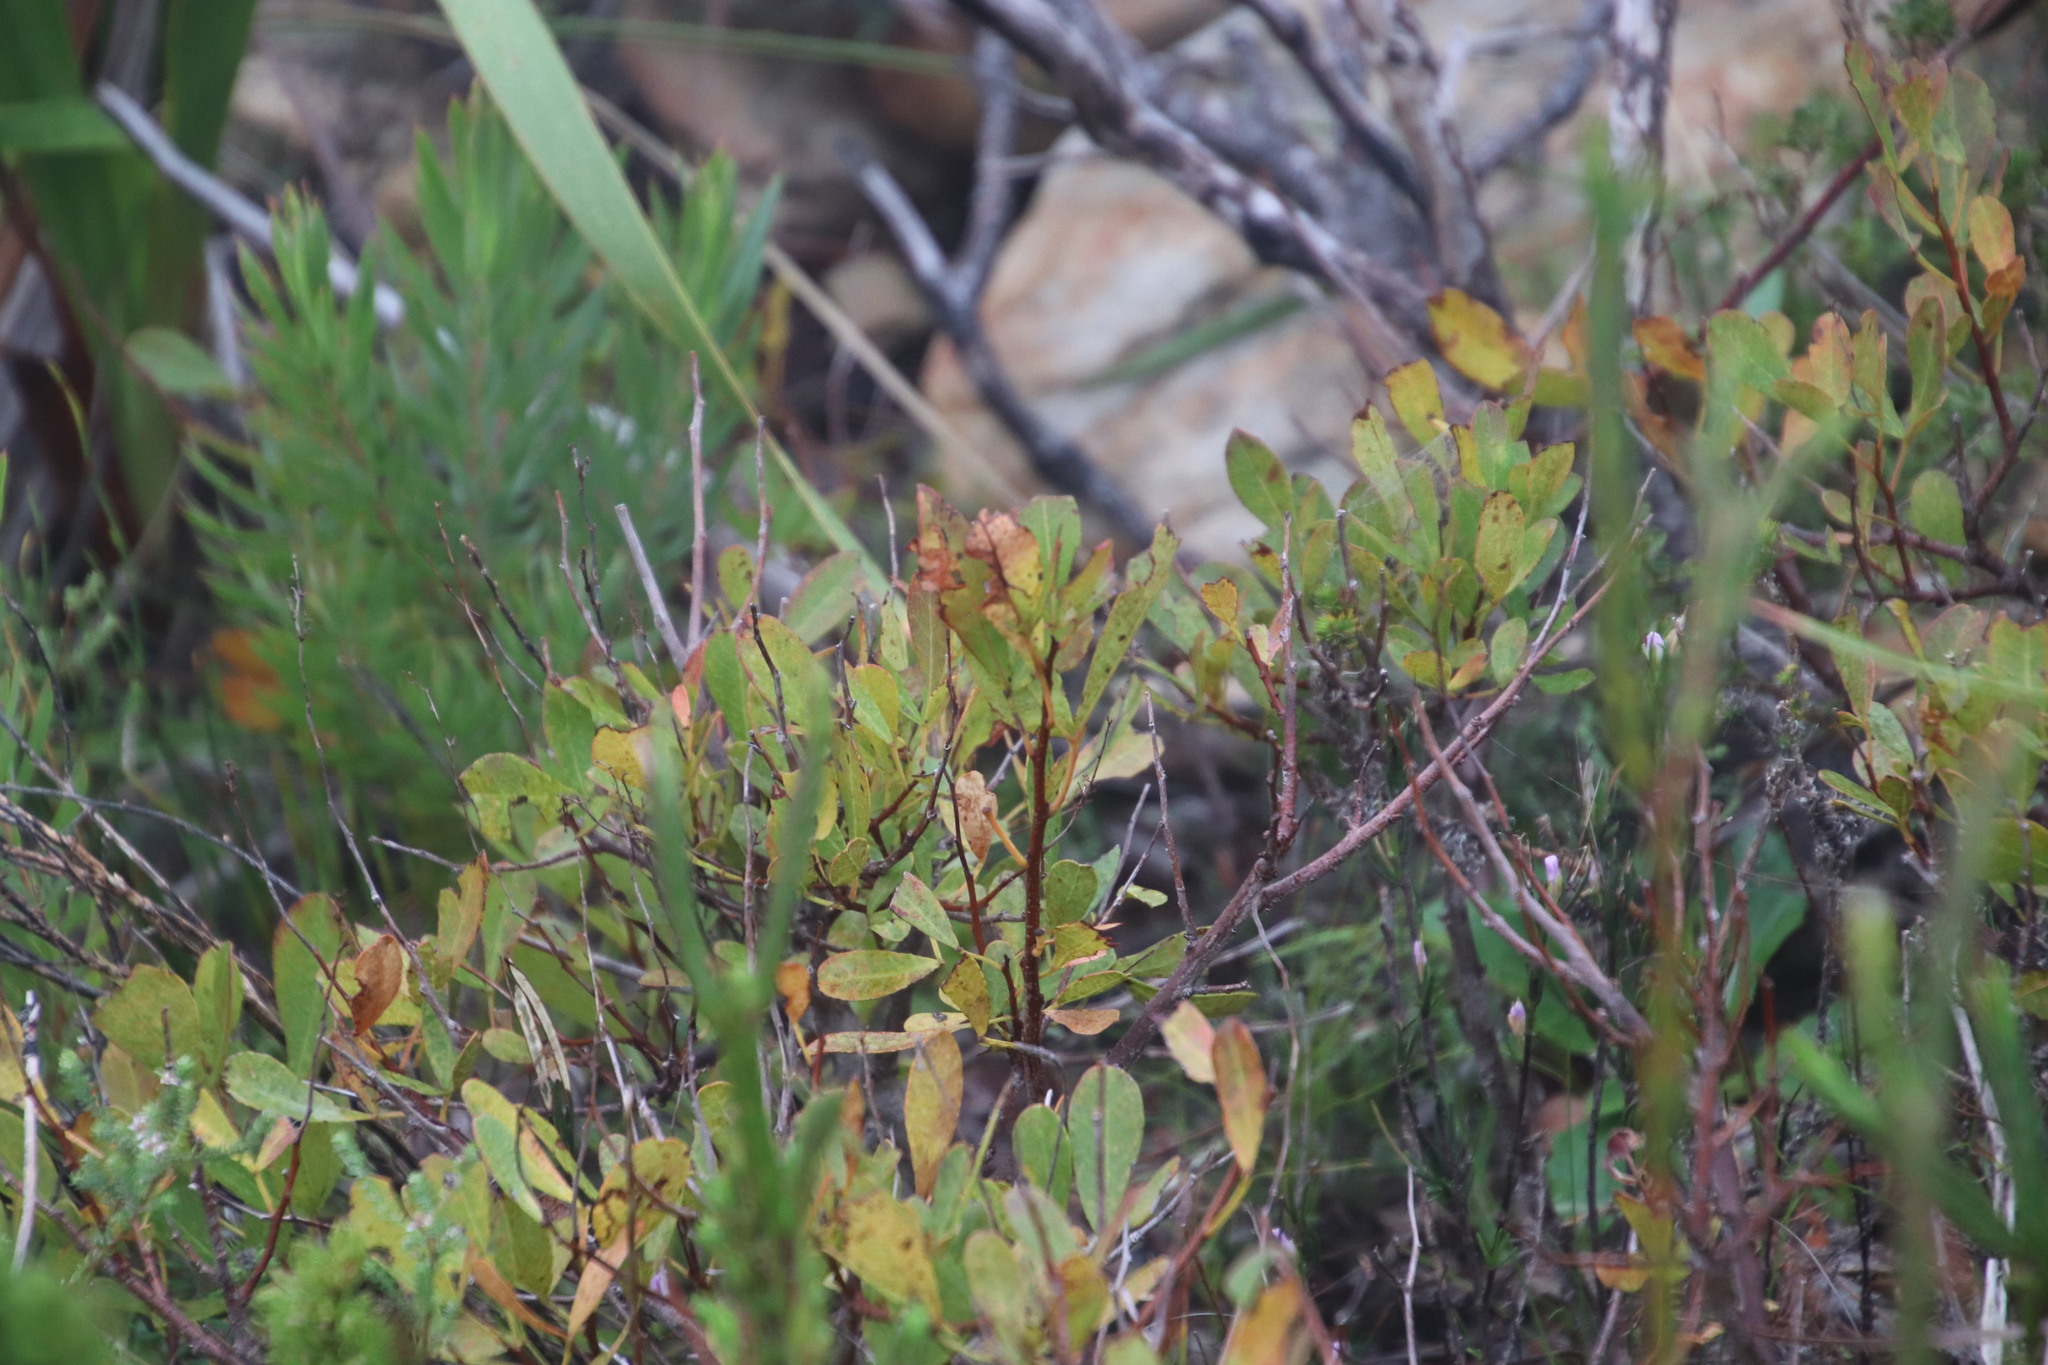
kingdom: Plantae
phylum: Tracheophyta
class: Magnoliopsida
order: Sapindales
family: Anacardiaceae
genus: Searsia
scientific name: Searsia laevigata
